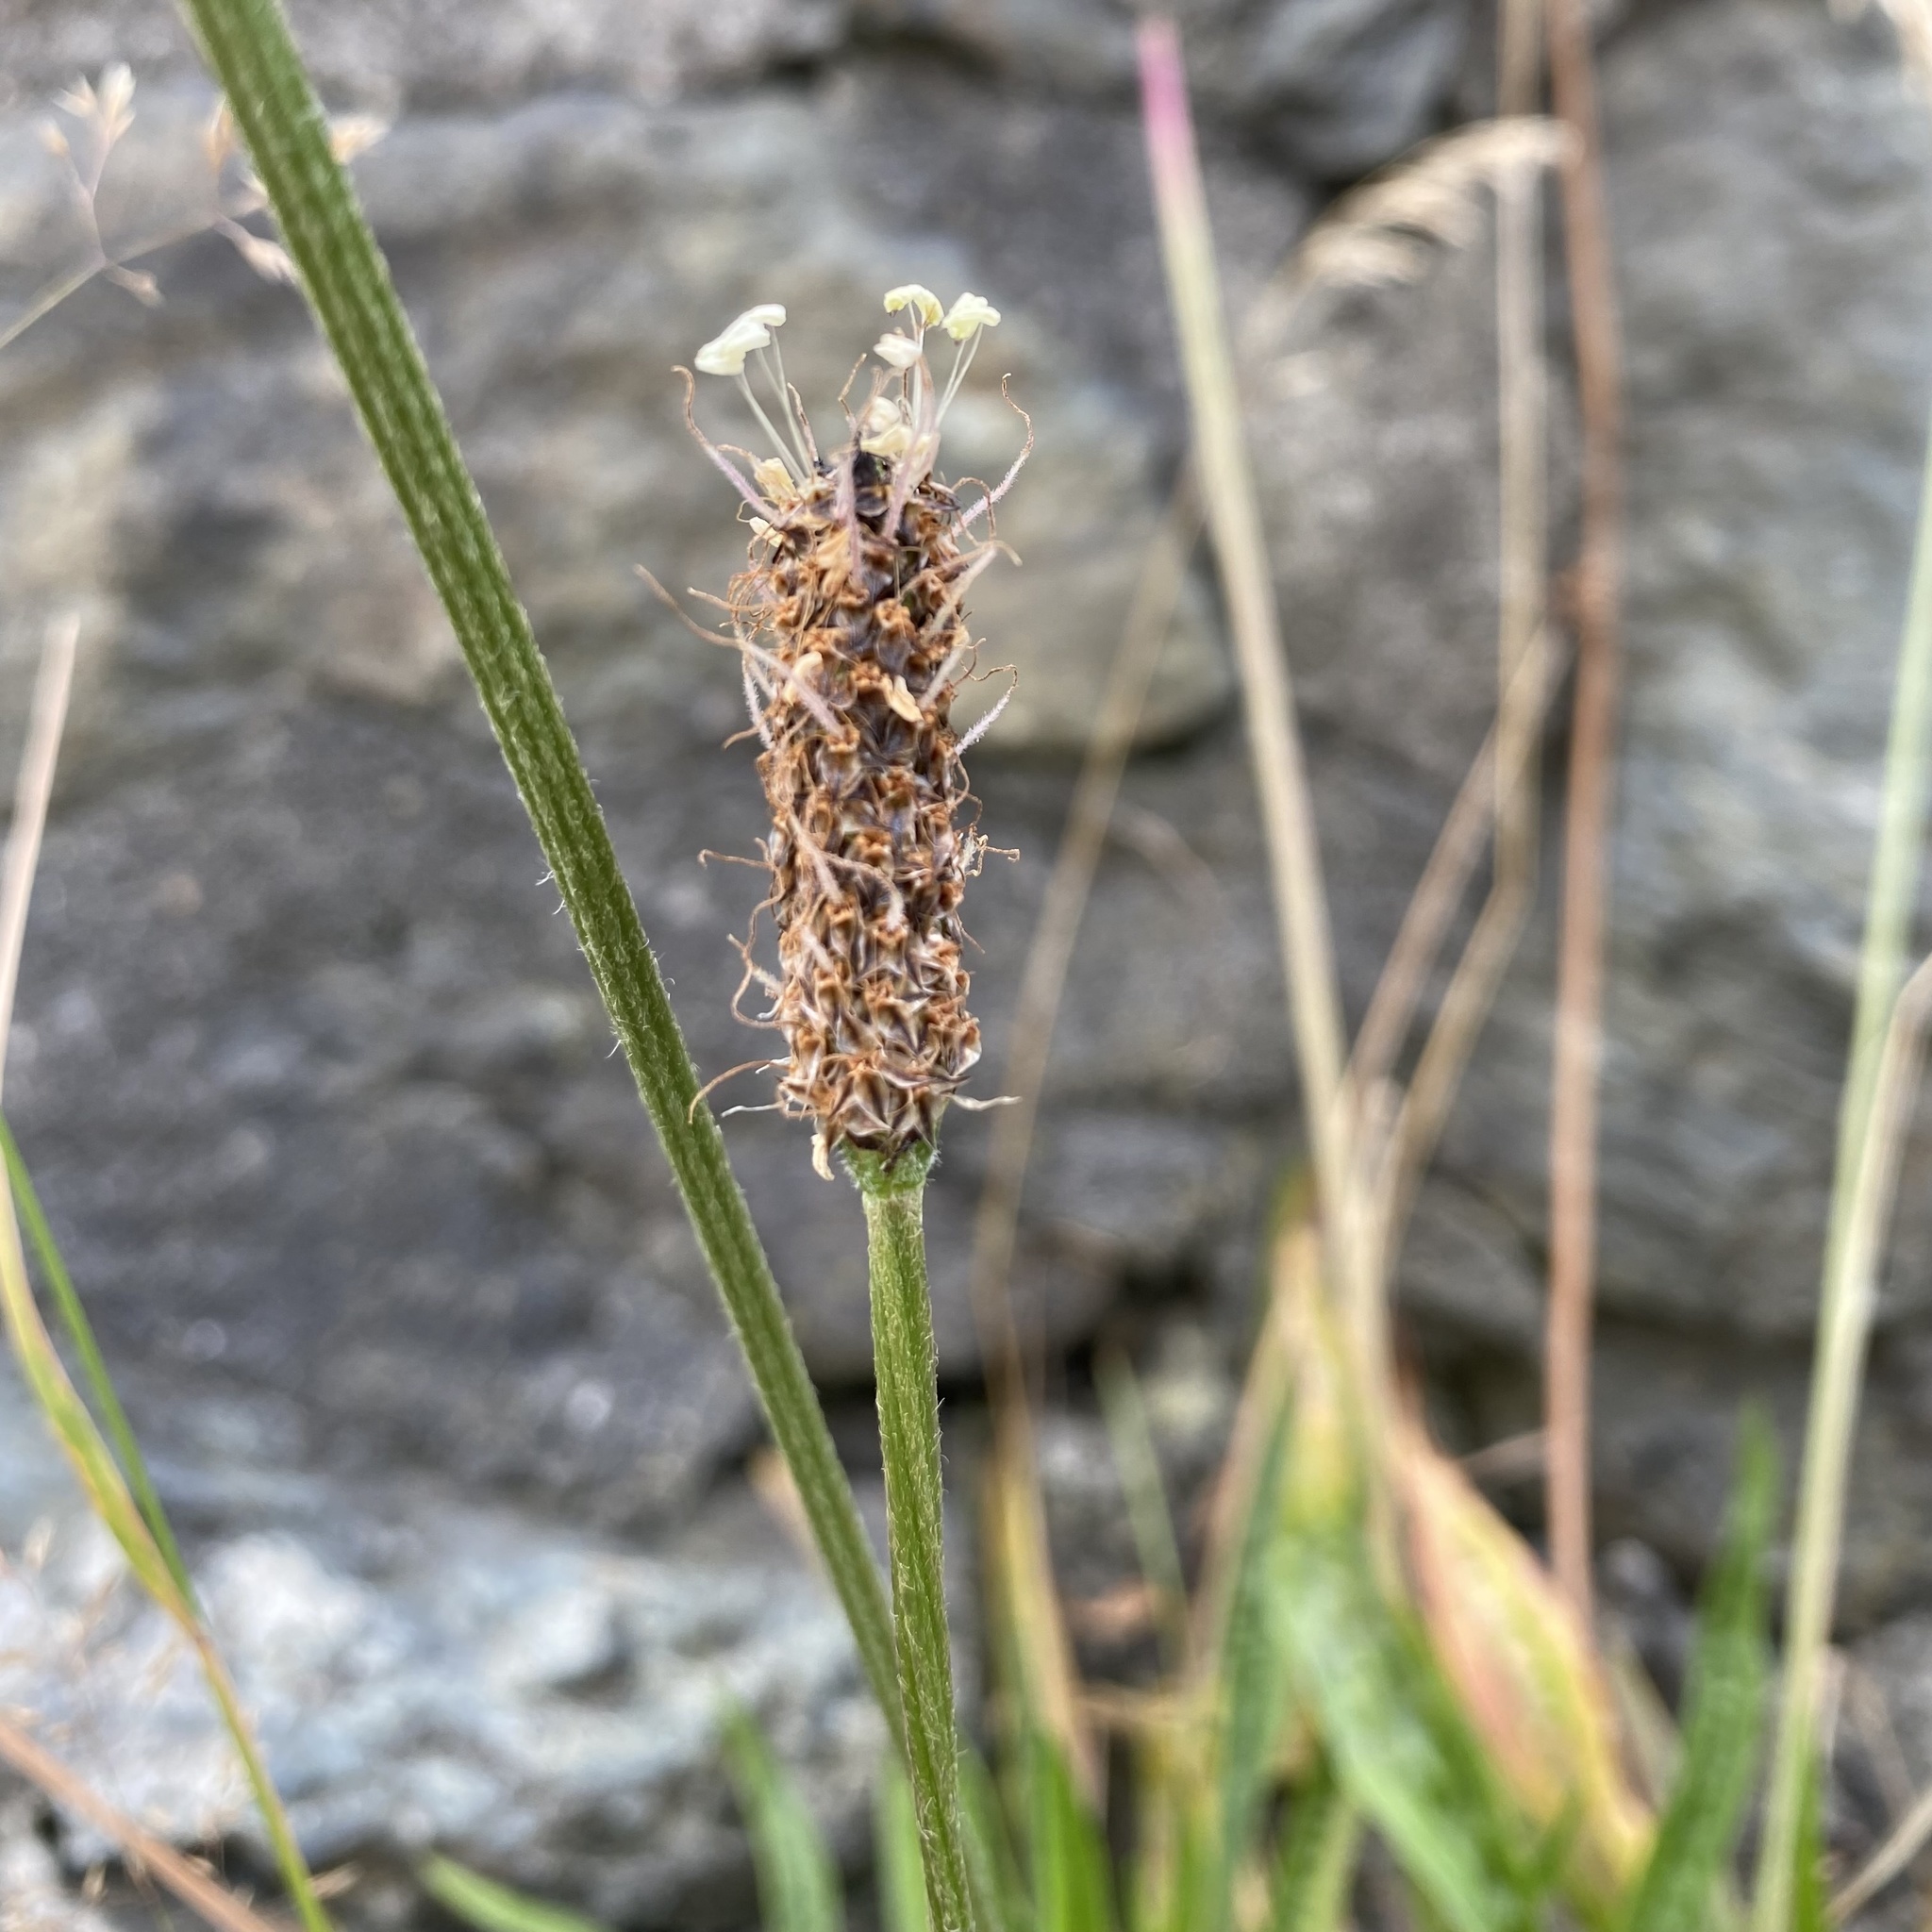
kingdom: Plantae
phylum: Tracheophyta
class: Magnoliopsida
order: Lamiales
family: Plantaginaceae
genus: Plantago
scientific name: Plantago lanceolata
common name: Ribwort plantain
